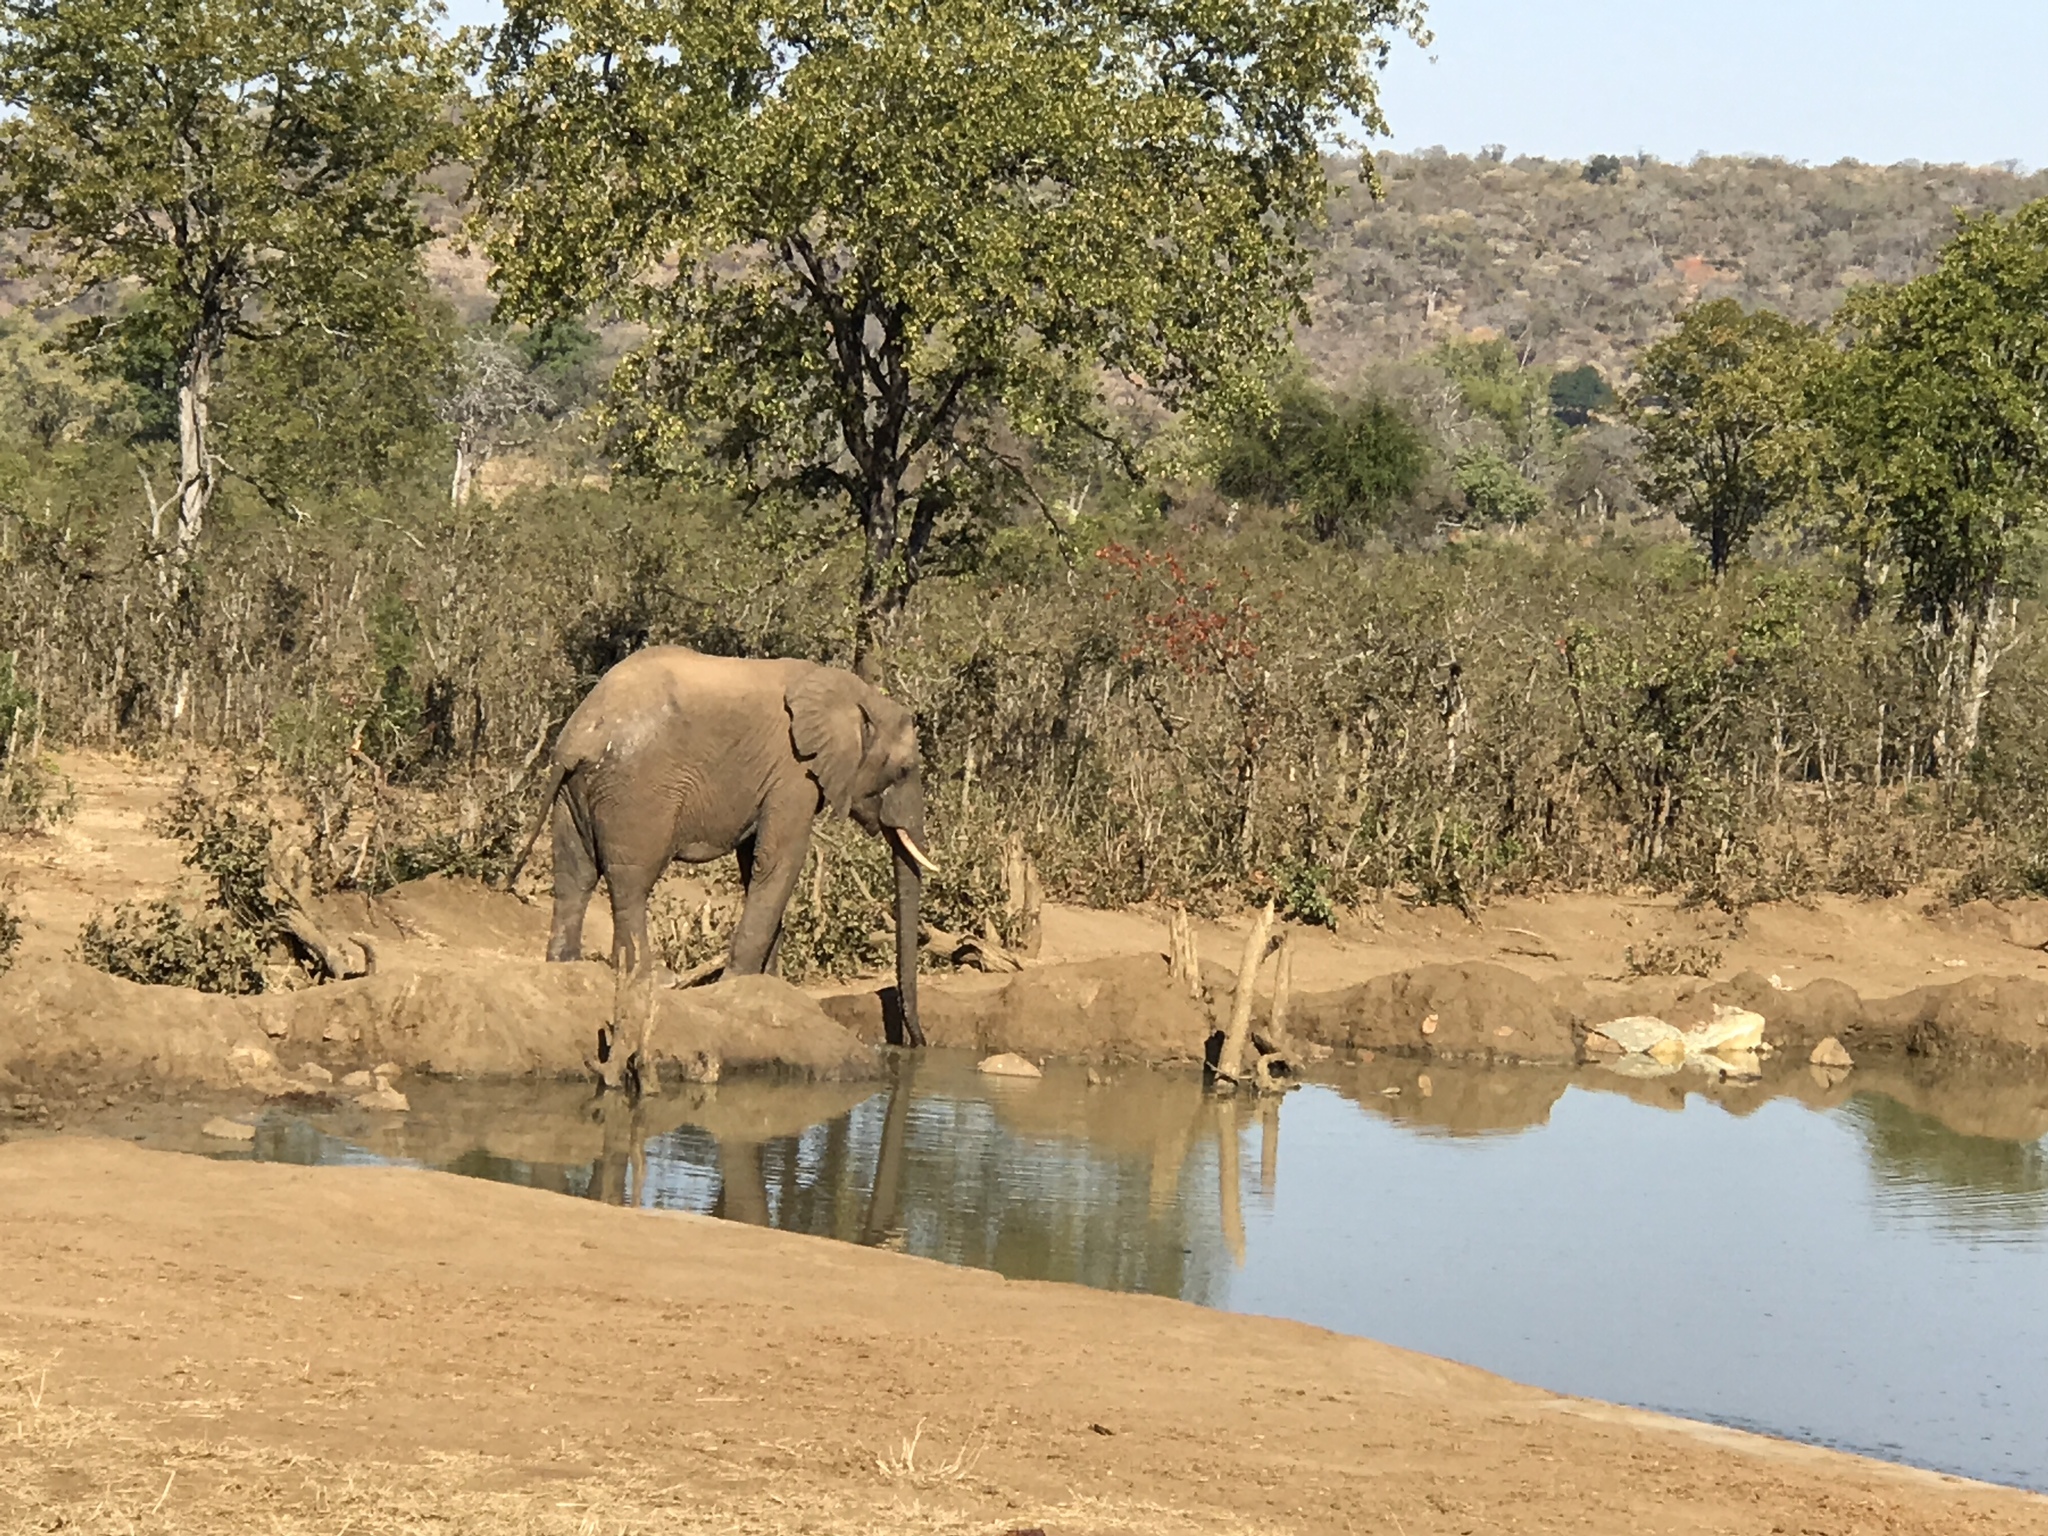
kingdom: Animalia
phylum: Chordata
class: Mammalia
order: Proboscidea
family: Elephantidae
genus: Loxodonta
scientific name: Loxodonta africana
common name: African elephant
